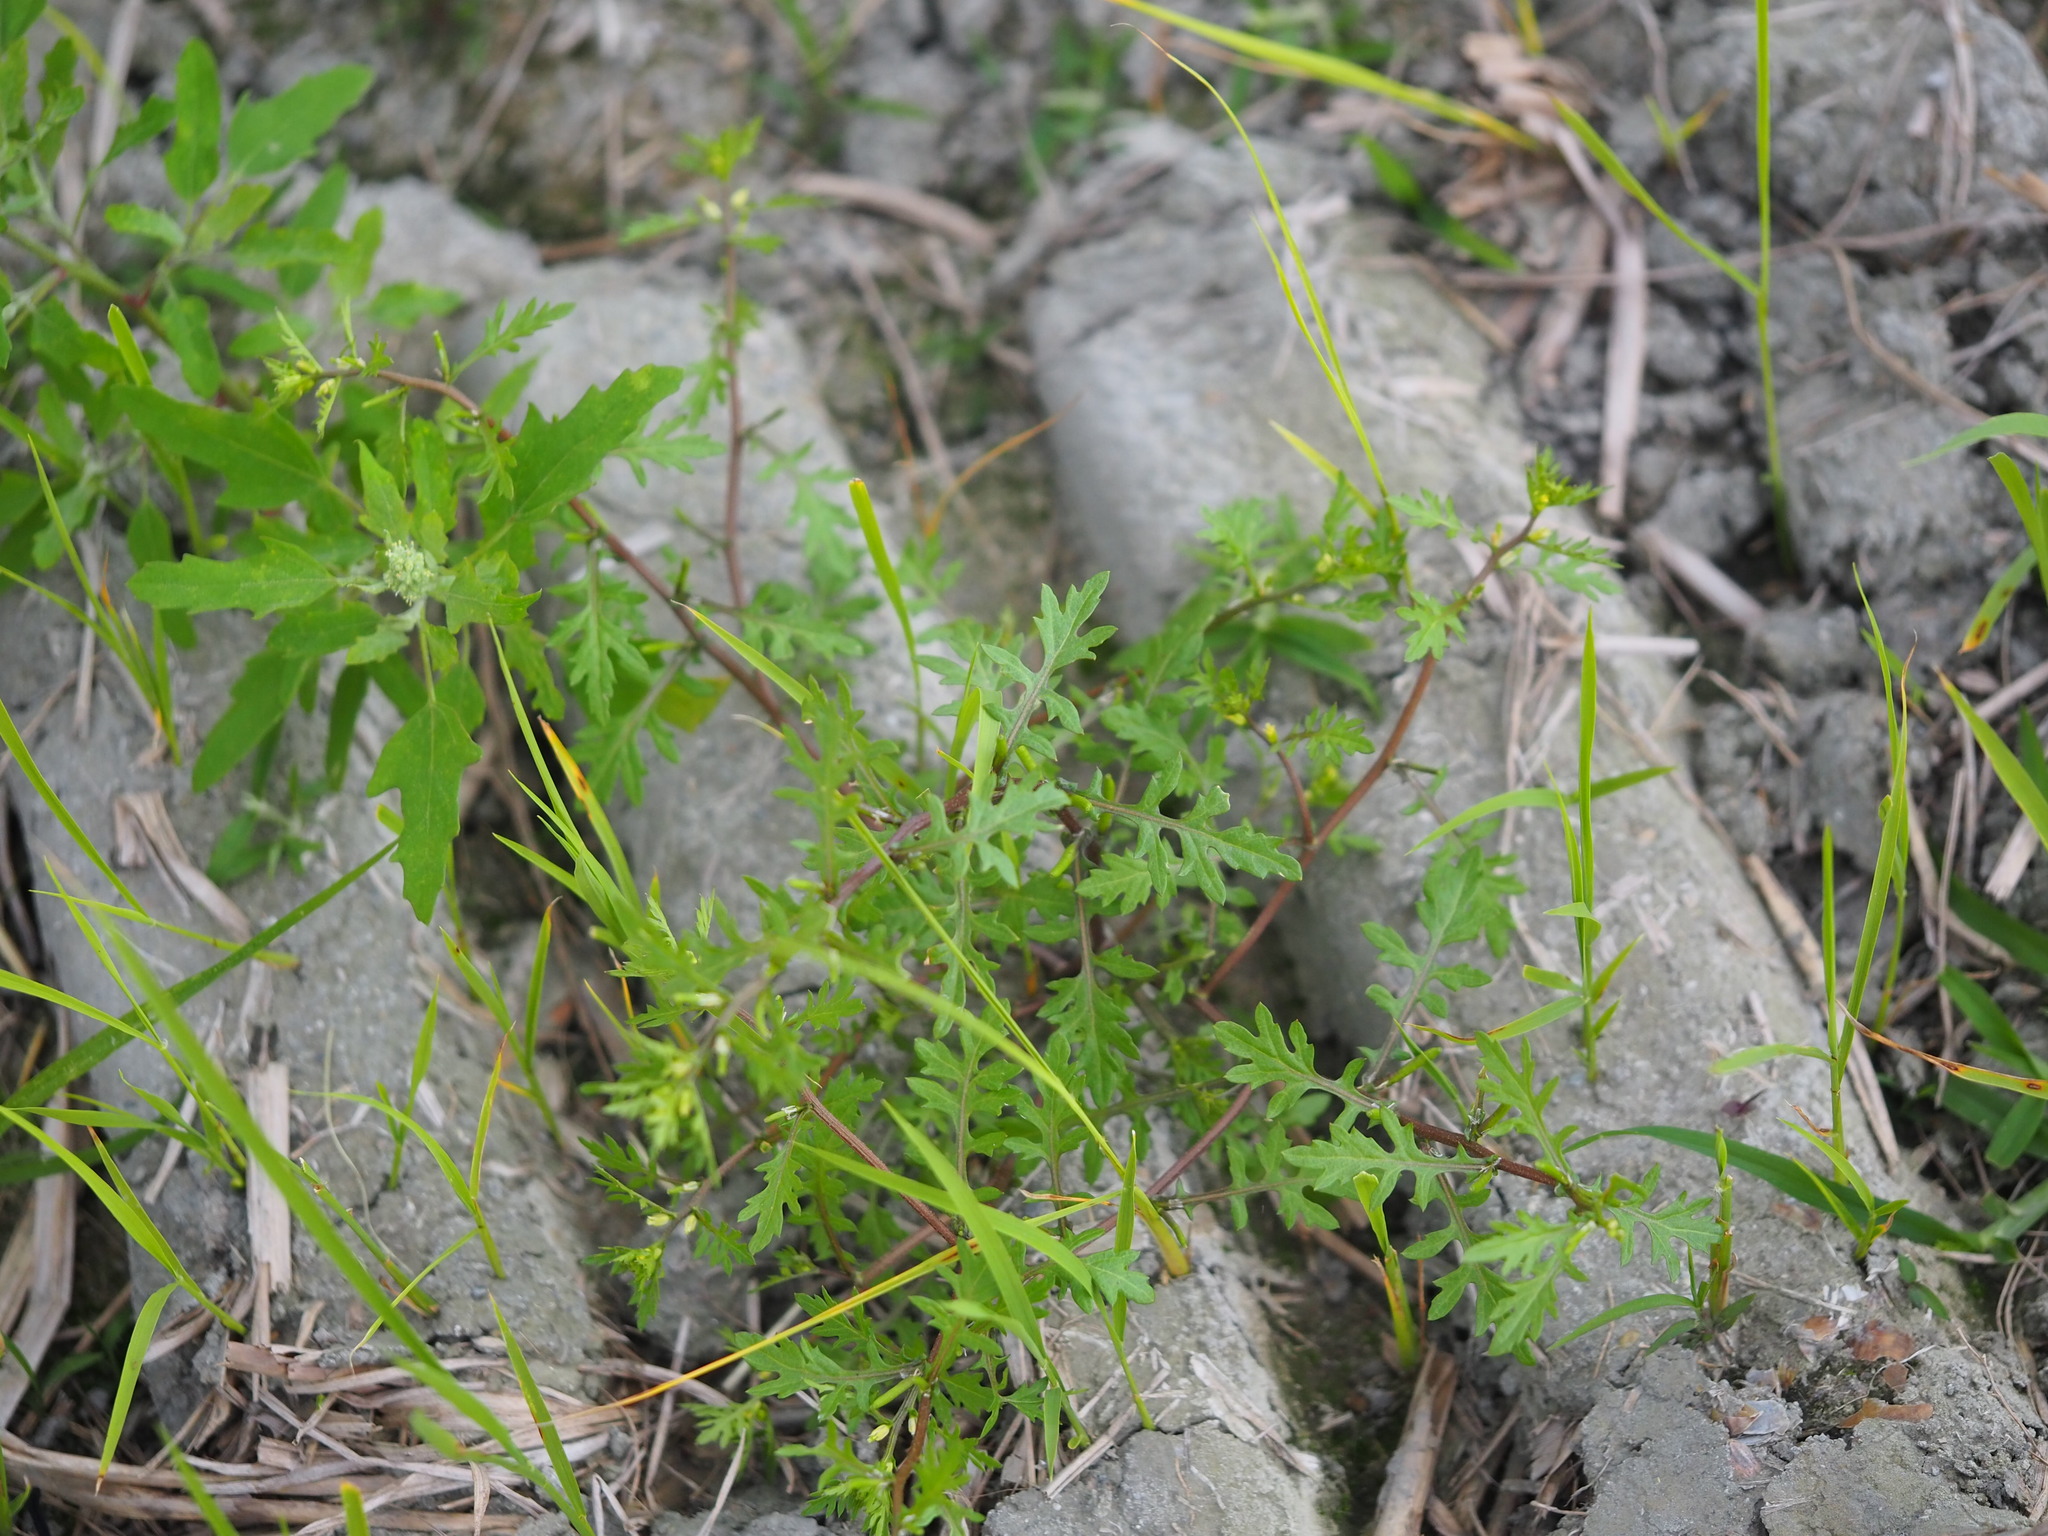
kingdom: Plantae
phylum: Tracheophyta
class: Magnoliopsida
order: Brassicales
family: Brassicaceae
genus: Rorippa
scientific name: Rorippa cantoniensis
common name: Chinese yellowcress
